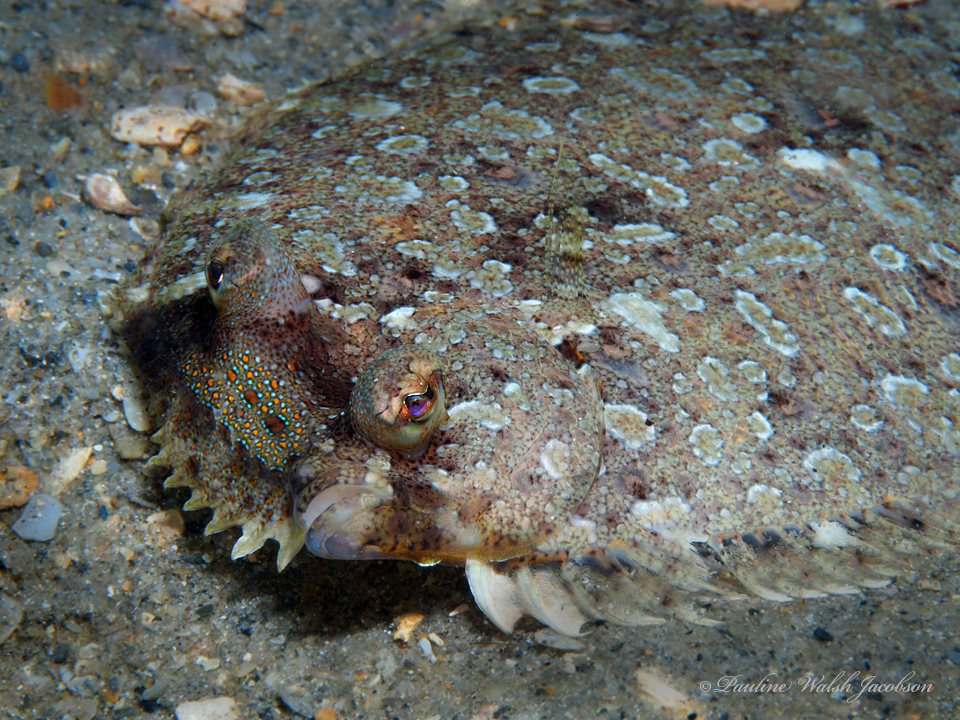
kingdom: Animalia
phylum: Chordata
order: Pleuronectiformes
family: Bothidae
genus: Bothus
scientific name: Bothus ocellatus
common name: Eyed flounder
